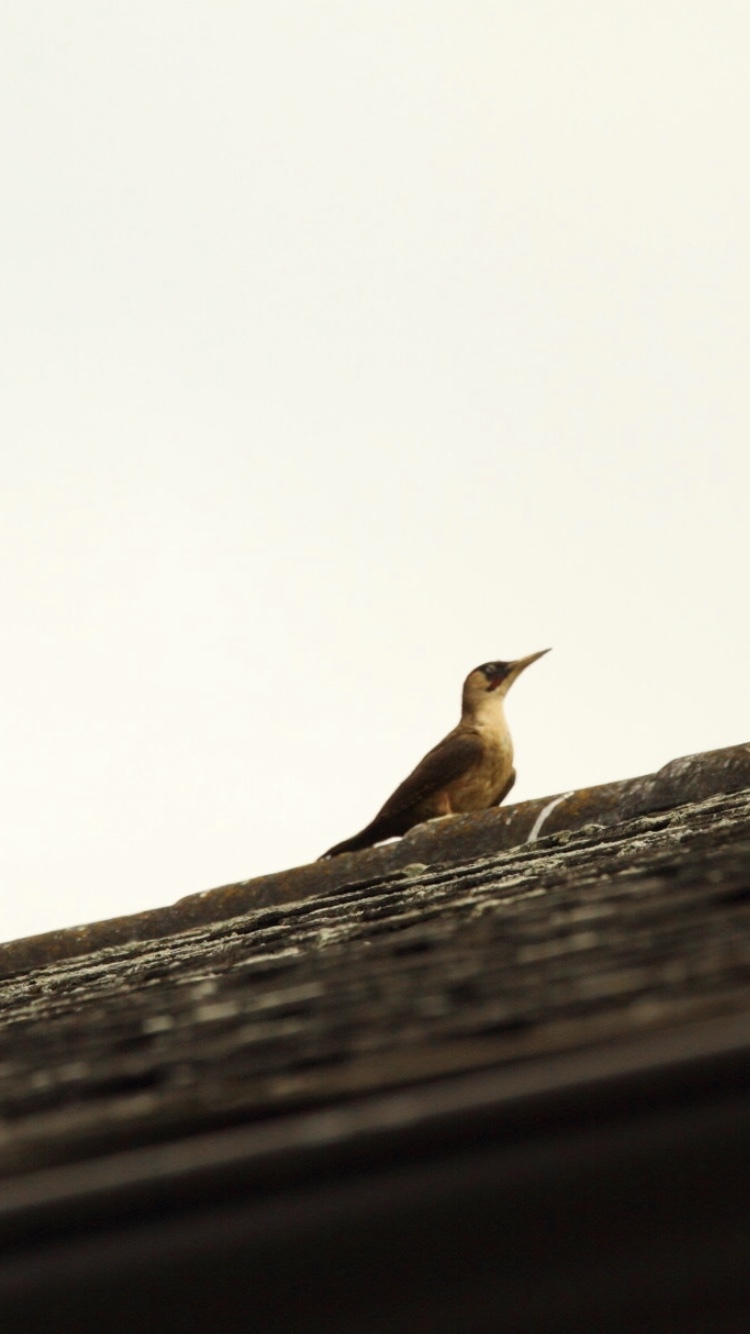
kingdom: Animalia
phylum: Chordata
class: Aves
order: Piciformes
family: Picidae
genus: Picus
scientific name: Picus viridis
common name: European green woodpecker
